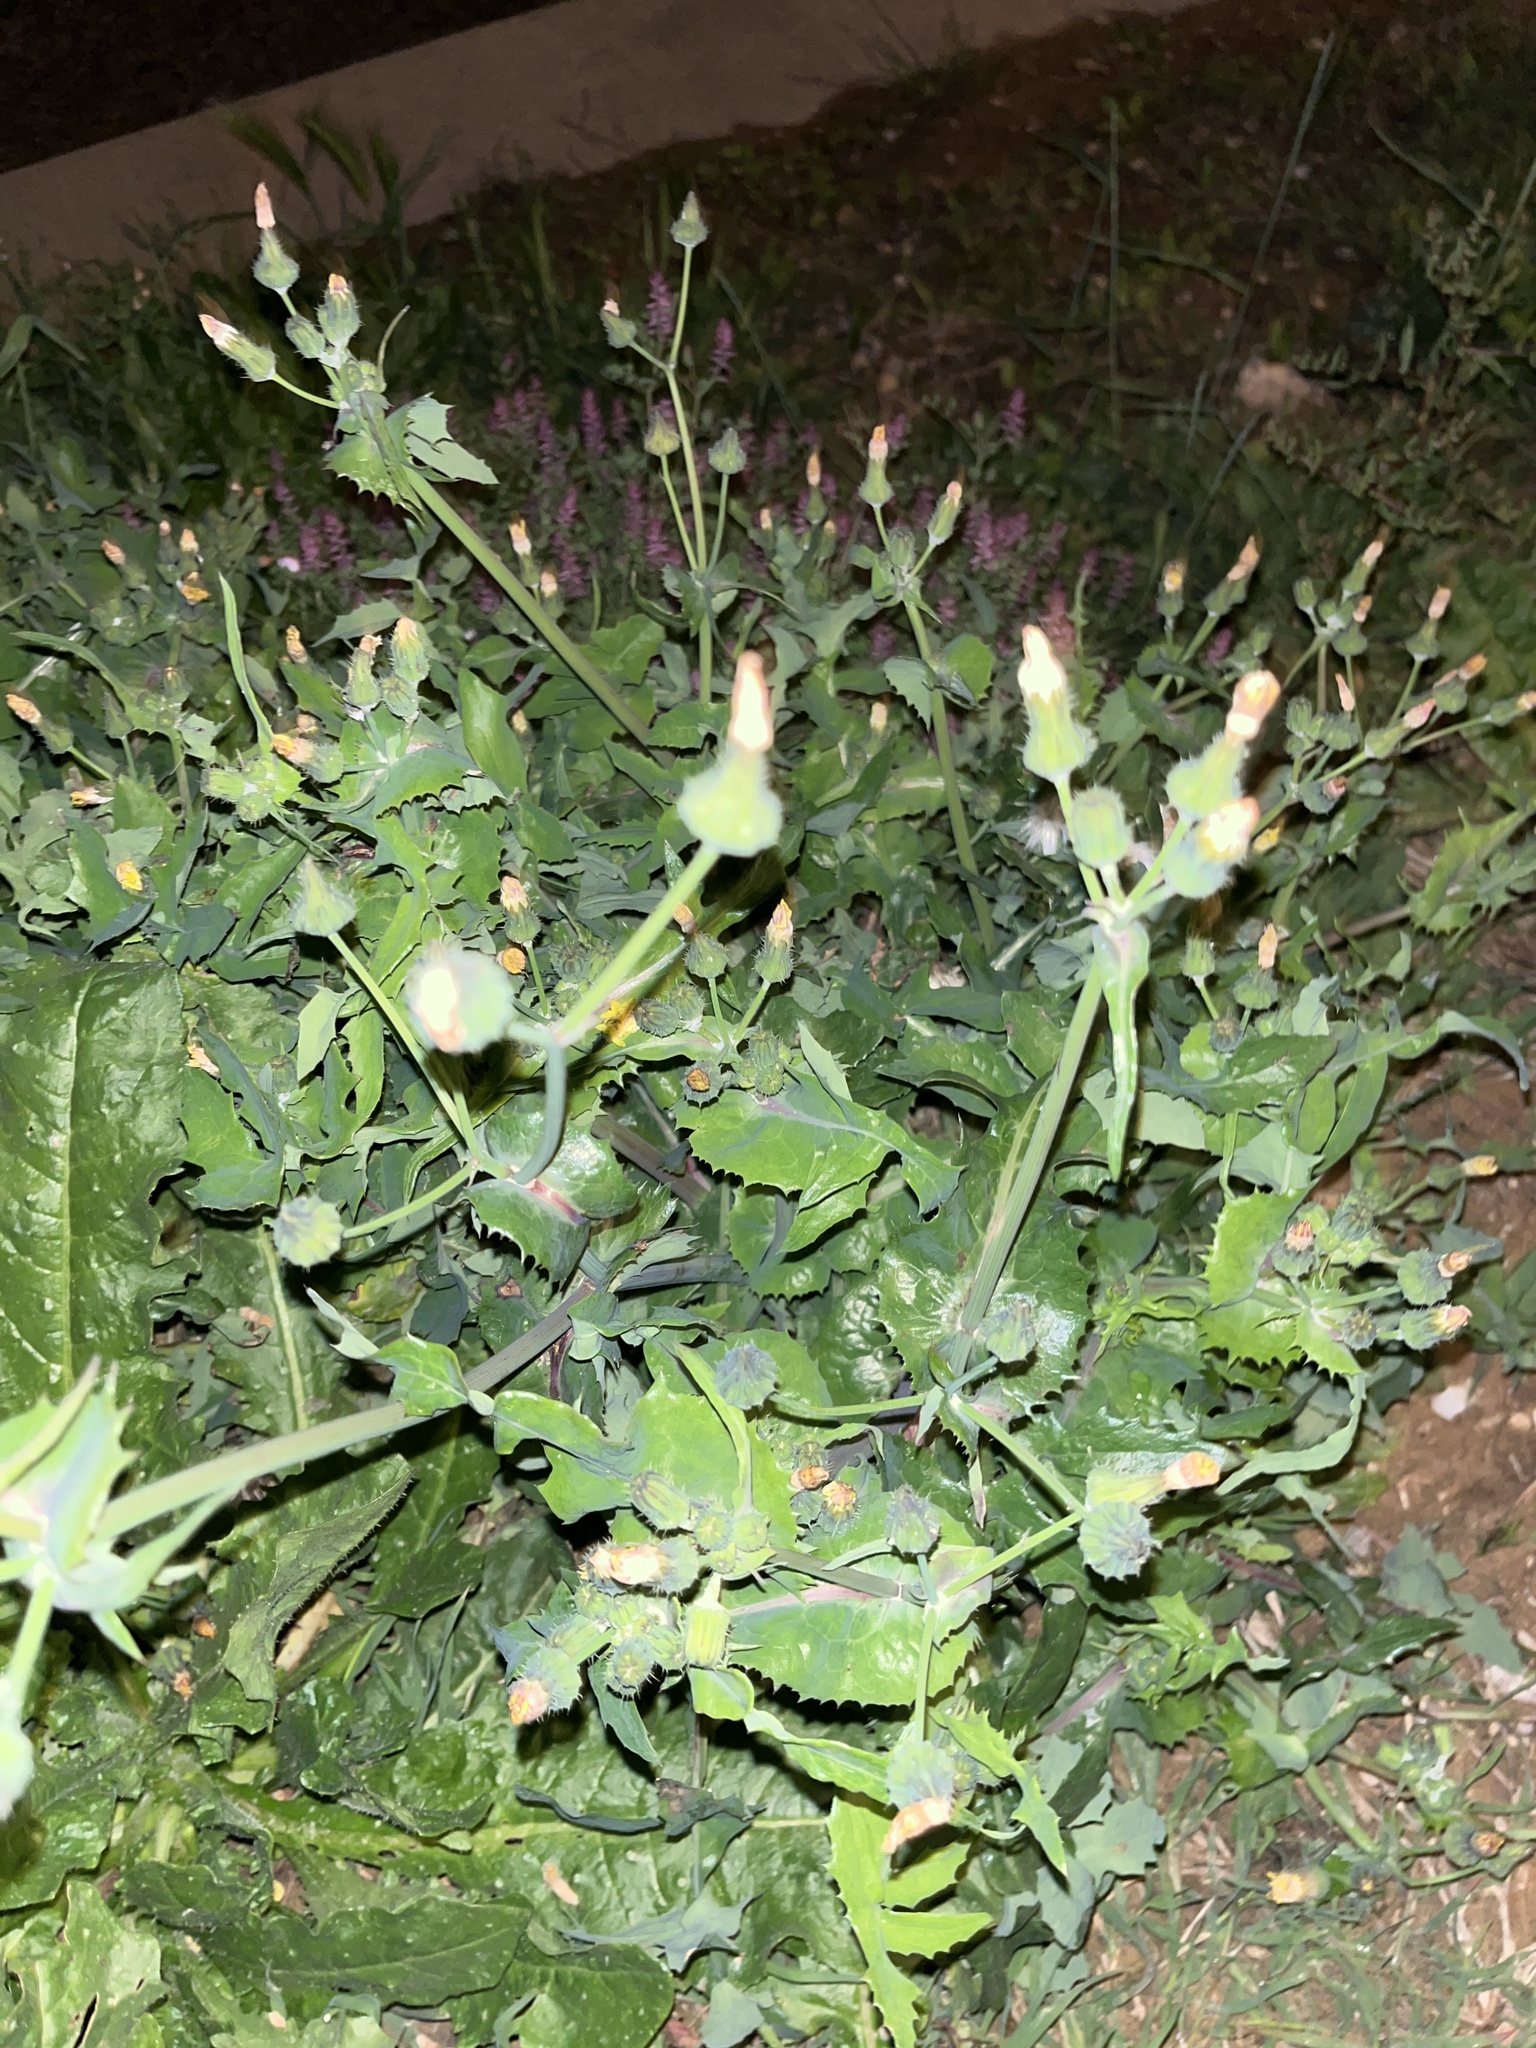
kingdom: Plantae
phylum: Tracheophyta
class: Magnoliopsida
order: Asterales
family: Asteraceae
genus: Sonchus
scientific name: Sonchus oleraceus
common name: Common sowthistle
